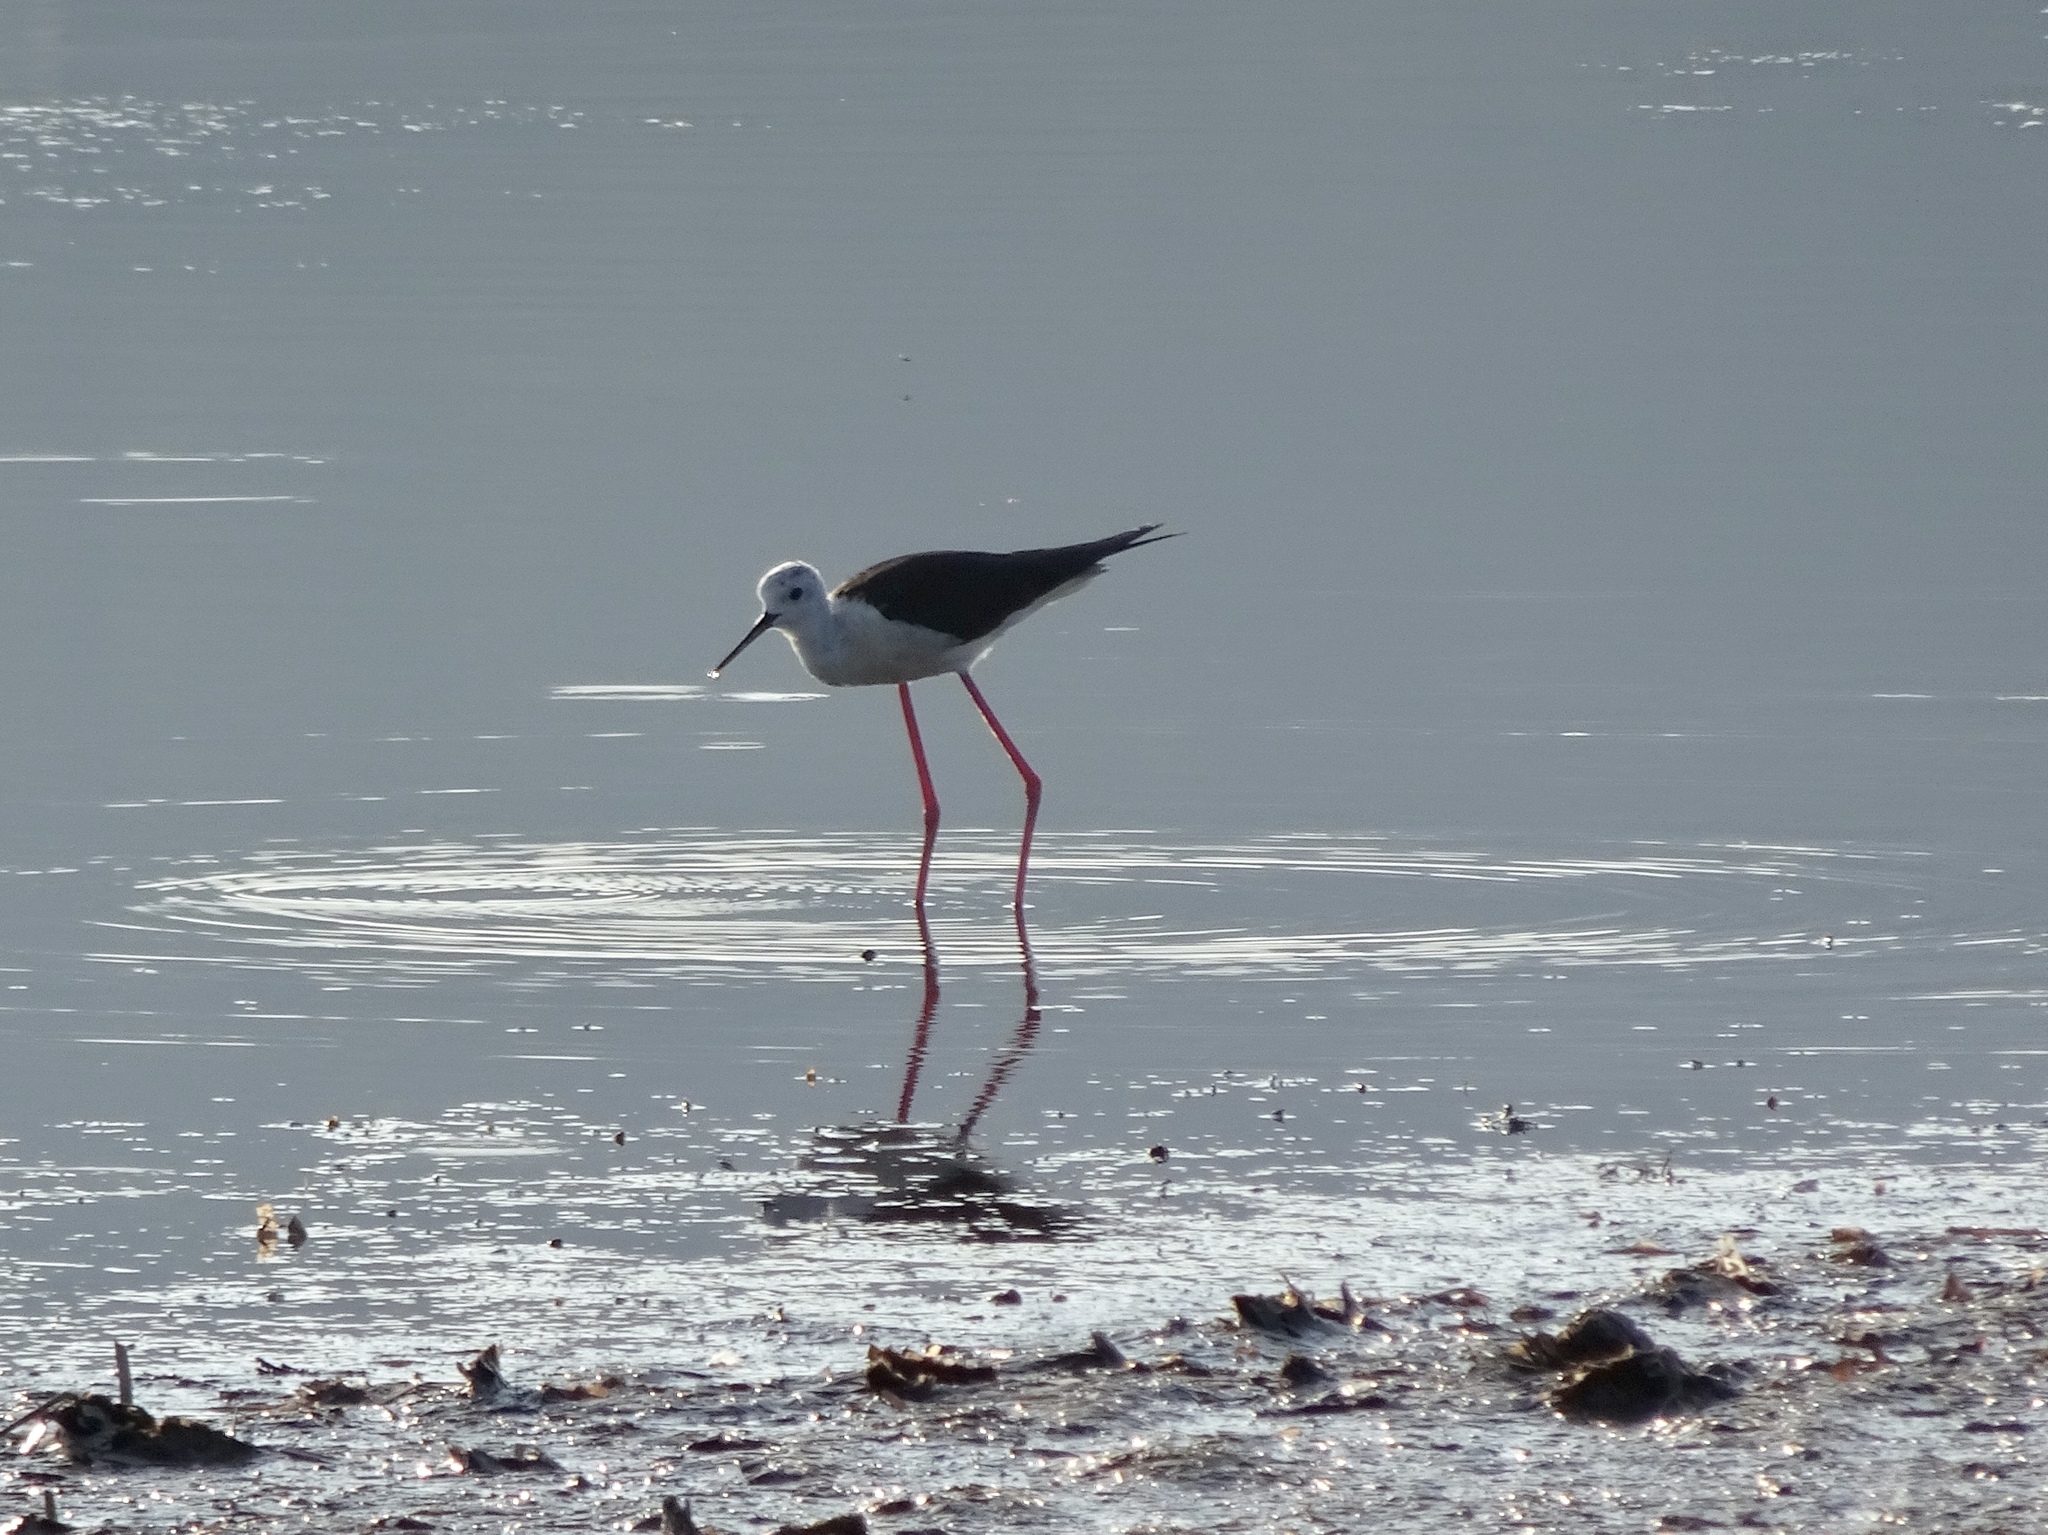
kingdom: Animalia
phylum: Chordata
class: Aves
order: Charadriiformes
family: Recurvirostridae
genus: Himantopus
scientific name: Himantopus himantopus
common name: Black-winged stilt
